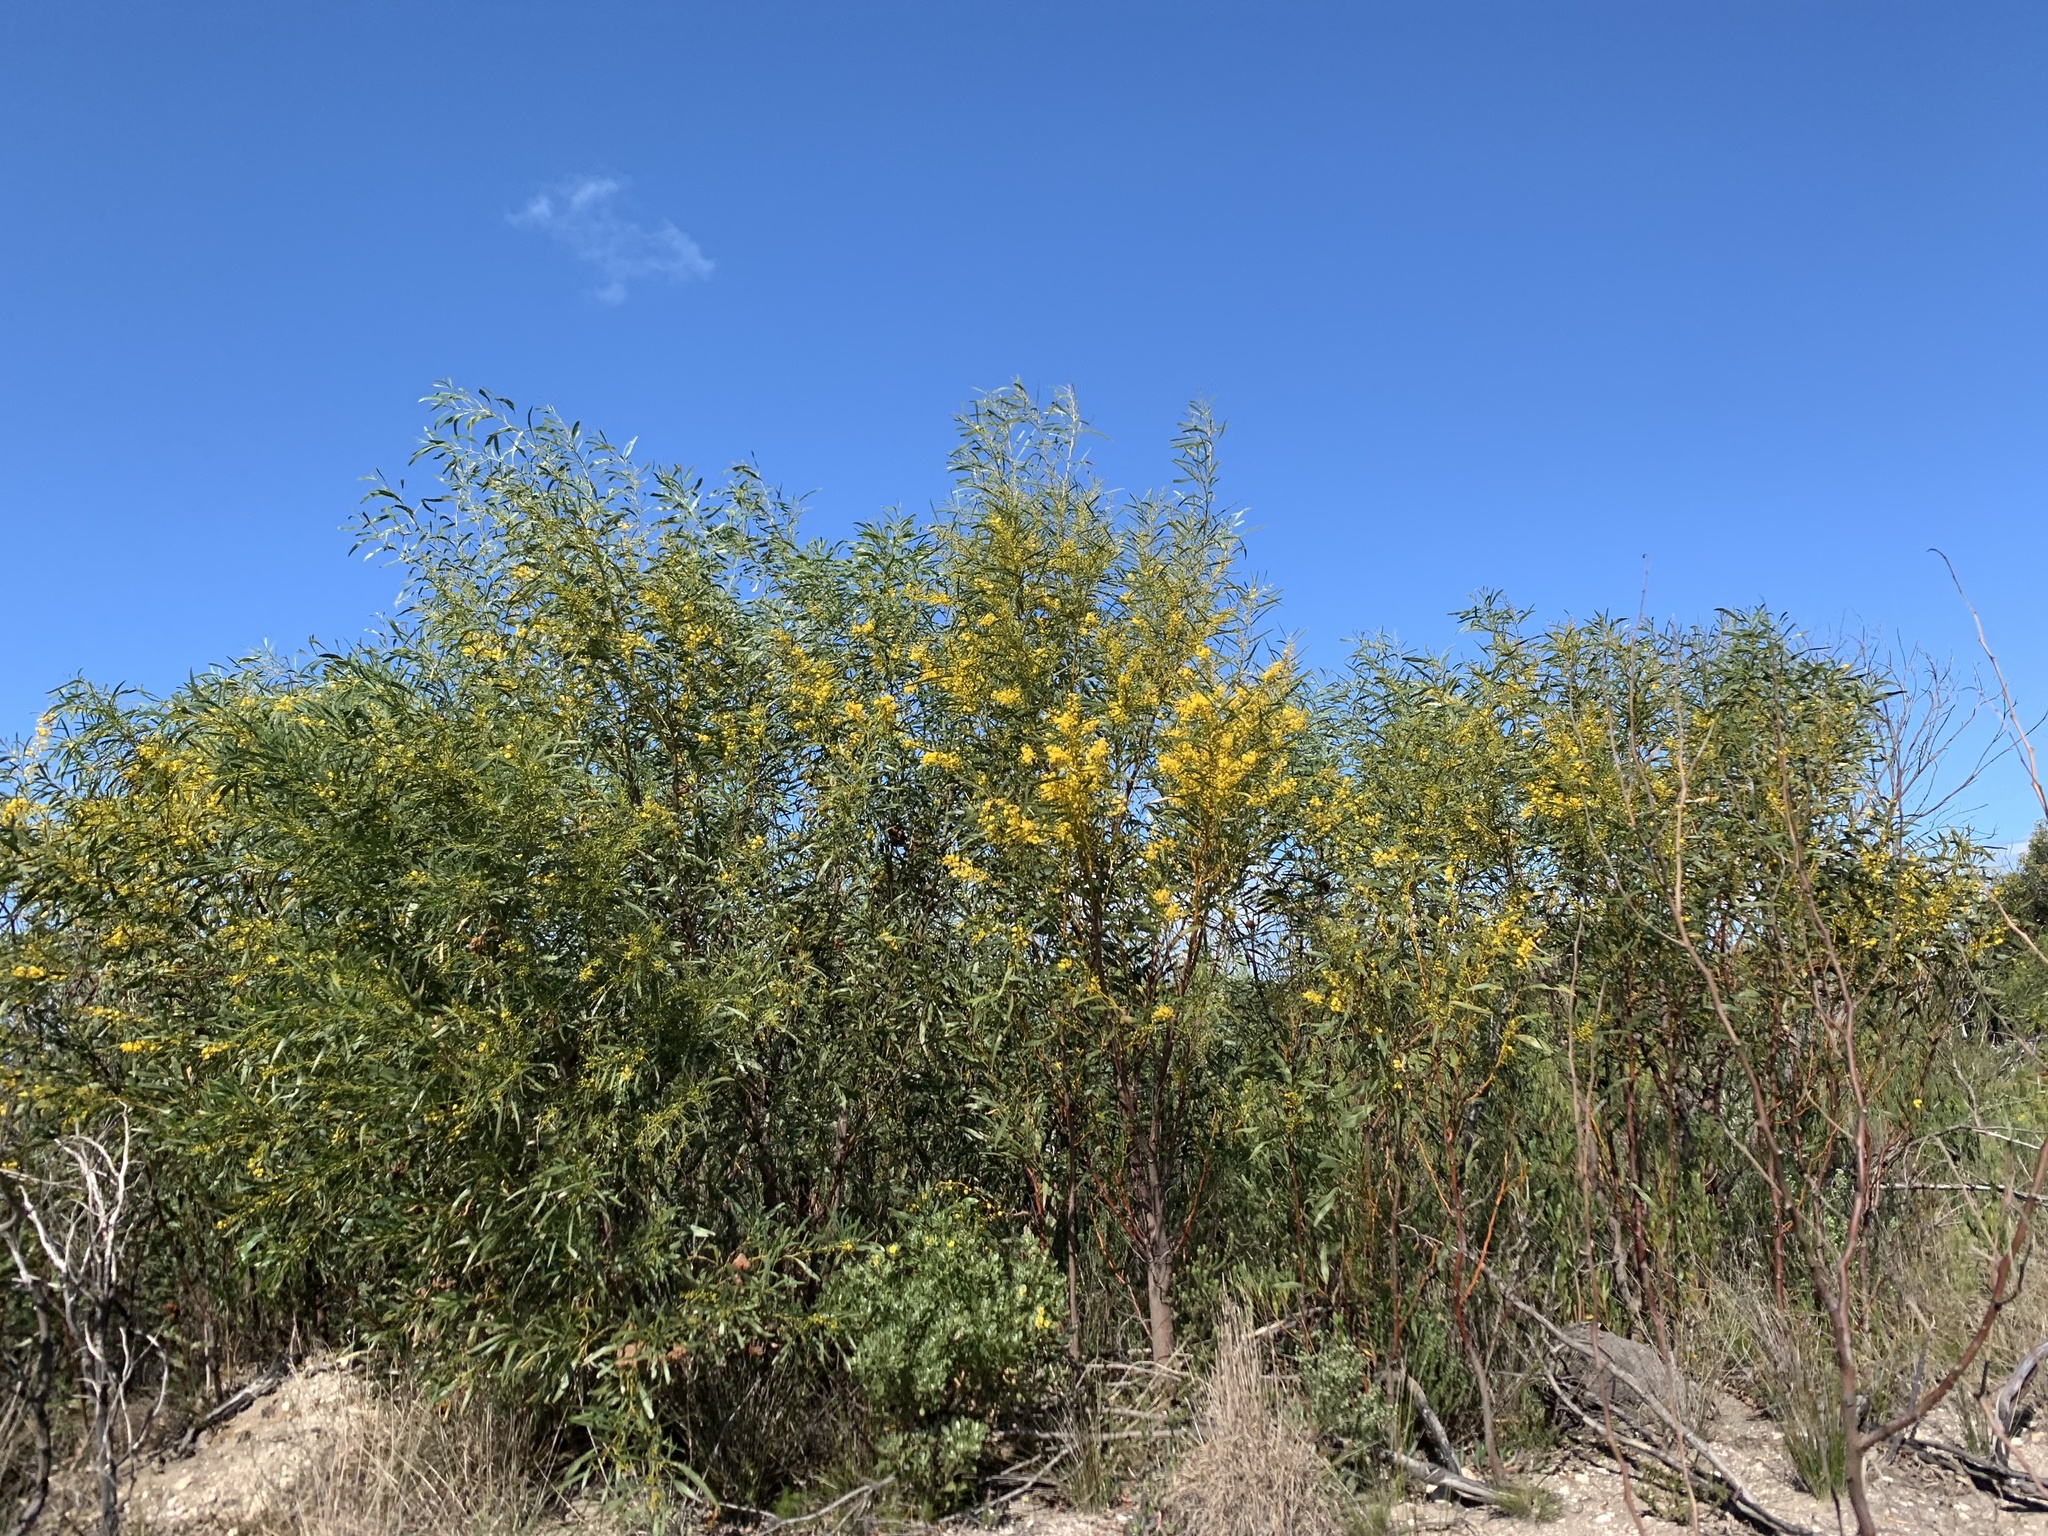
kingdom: Plantae
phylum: Tracheophyta
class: Magnoliopsida
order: Fabales
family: Fabaceae
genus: Acacia
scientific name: Acacia saligna
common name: Orange wattle
